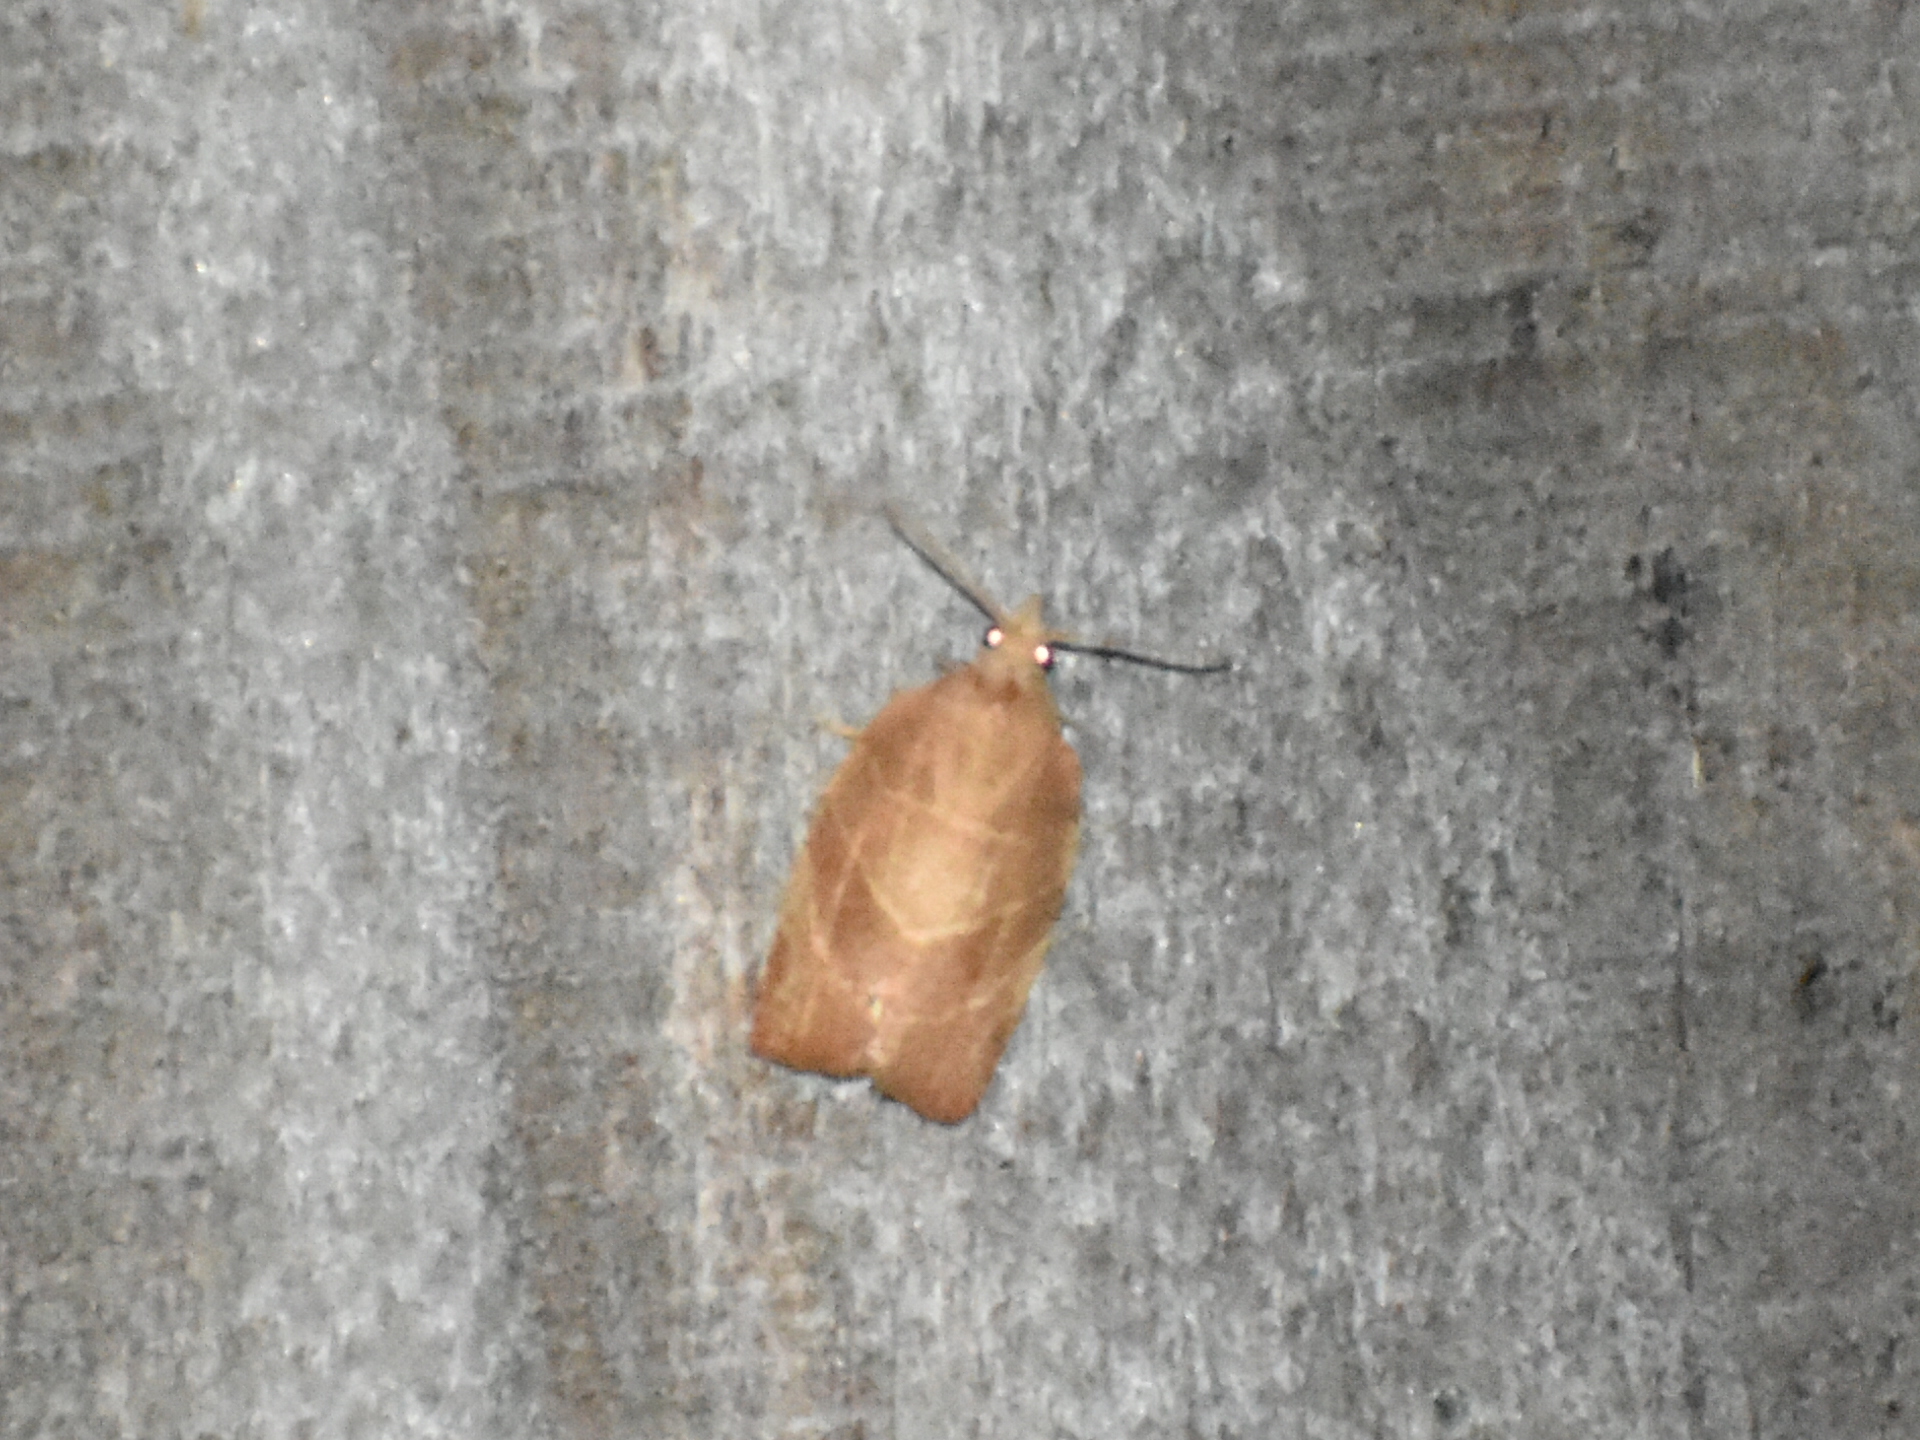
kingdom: Animalia
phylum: Arthropoda
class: Insecta
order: Lepidoptera
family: Tortricidae
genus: Pandemis
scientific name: Pandemis limitata
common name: Three-lined leafroller moth
